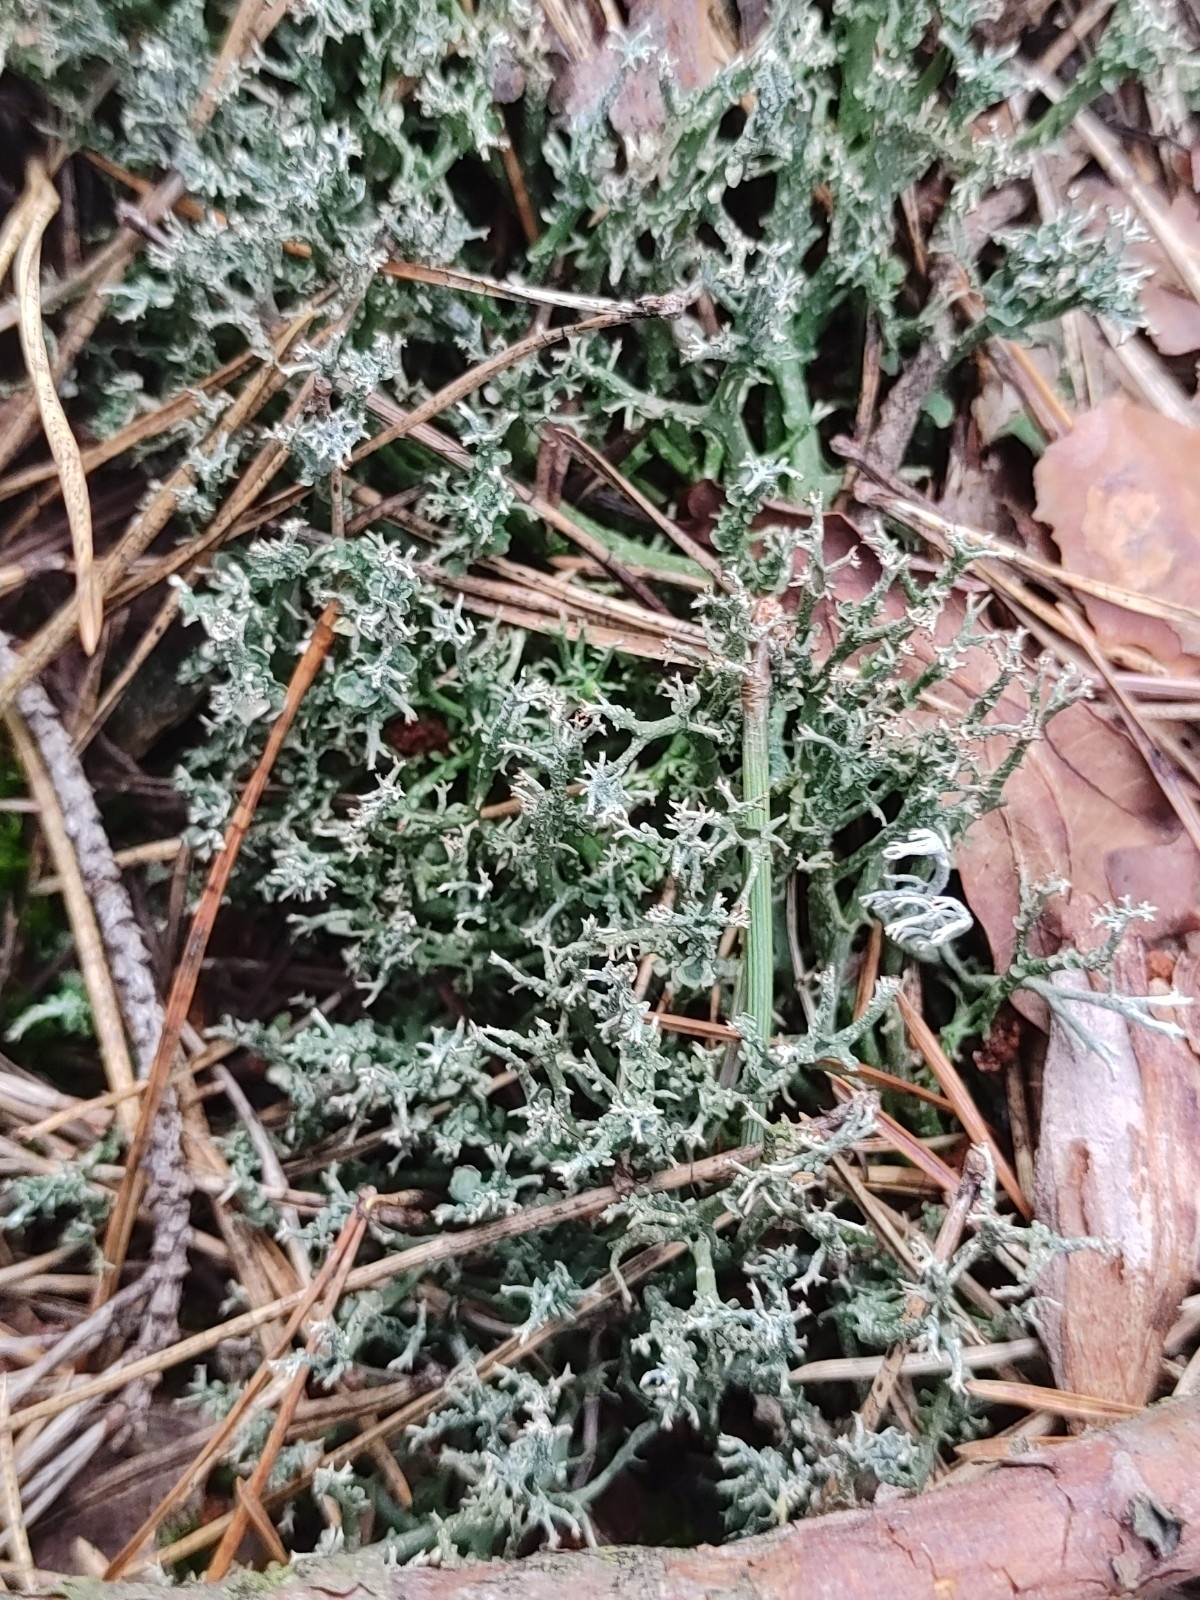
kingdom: Fungi
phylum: Ascomycota
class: Lecanoromycetes
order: Lecanorales
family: Cladoniaceae
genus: Cladonia
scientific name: Cladonia furcata
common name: Many-forked cladonia
